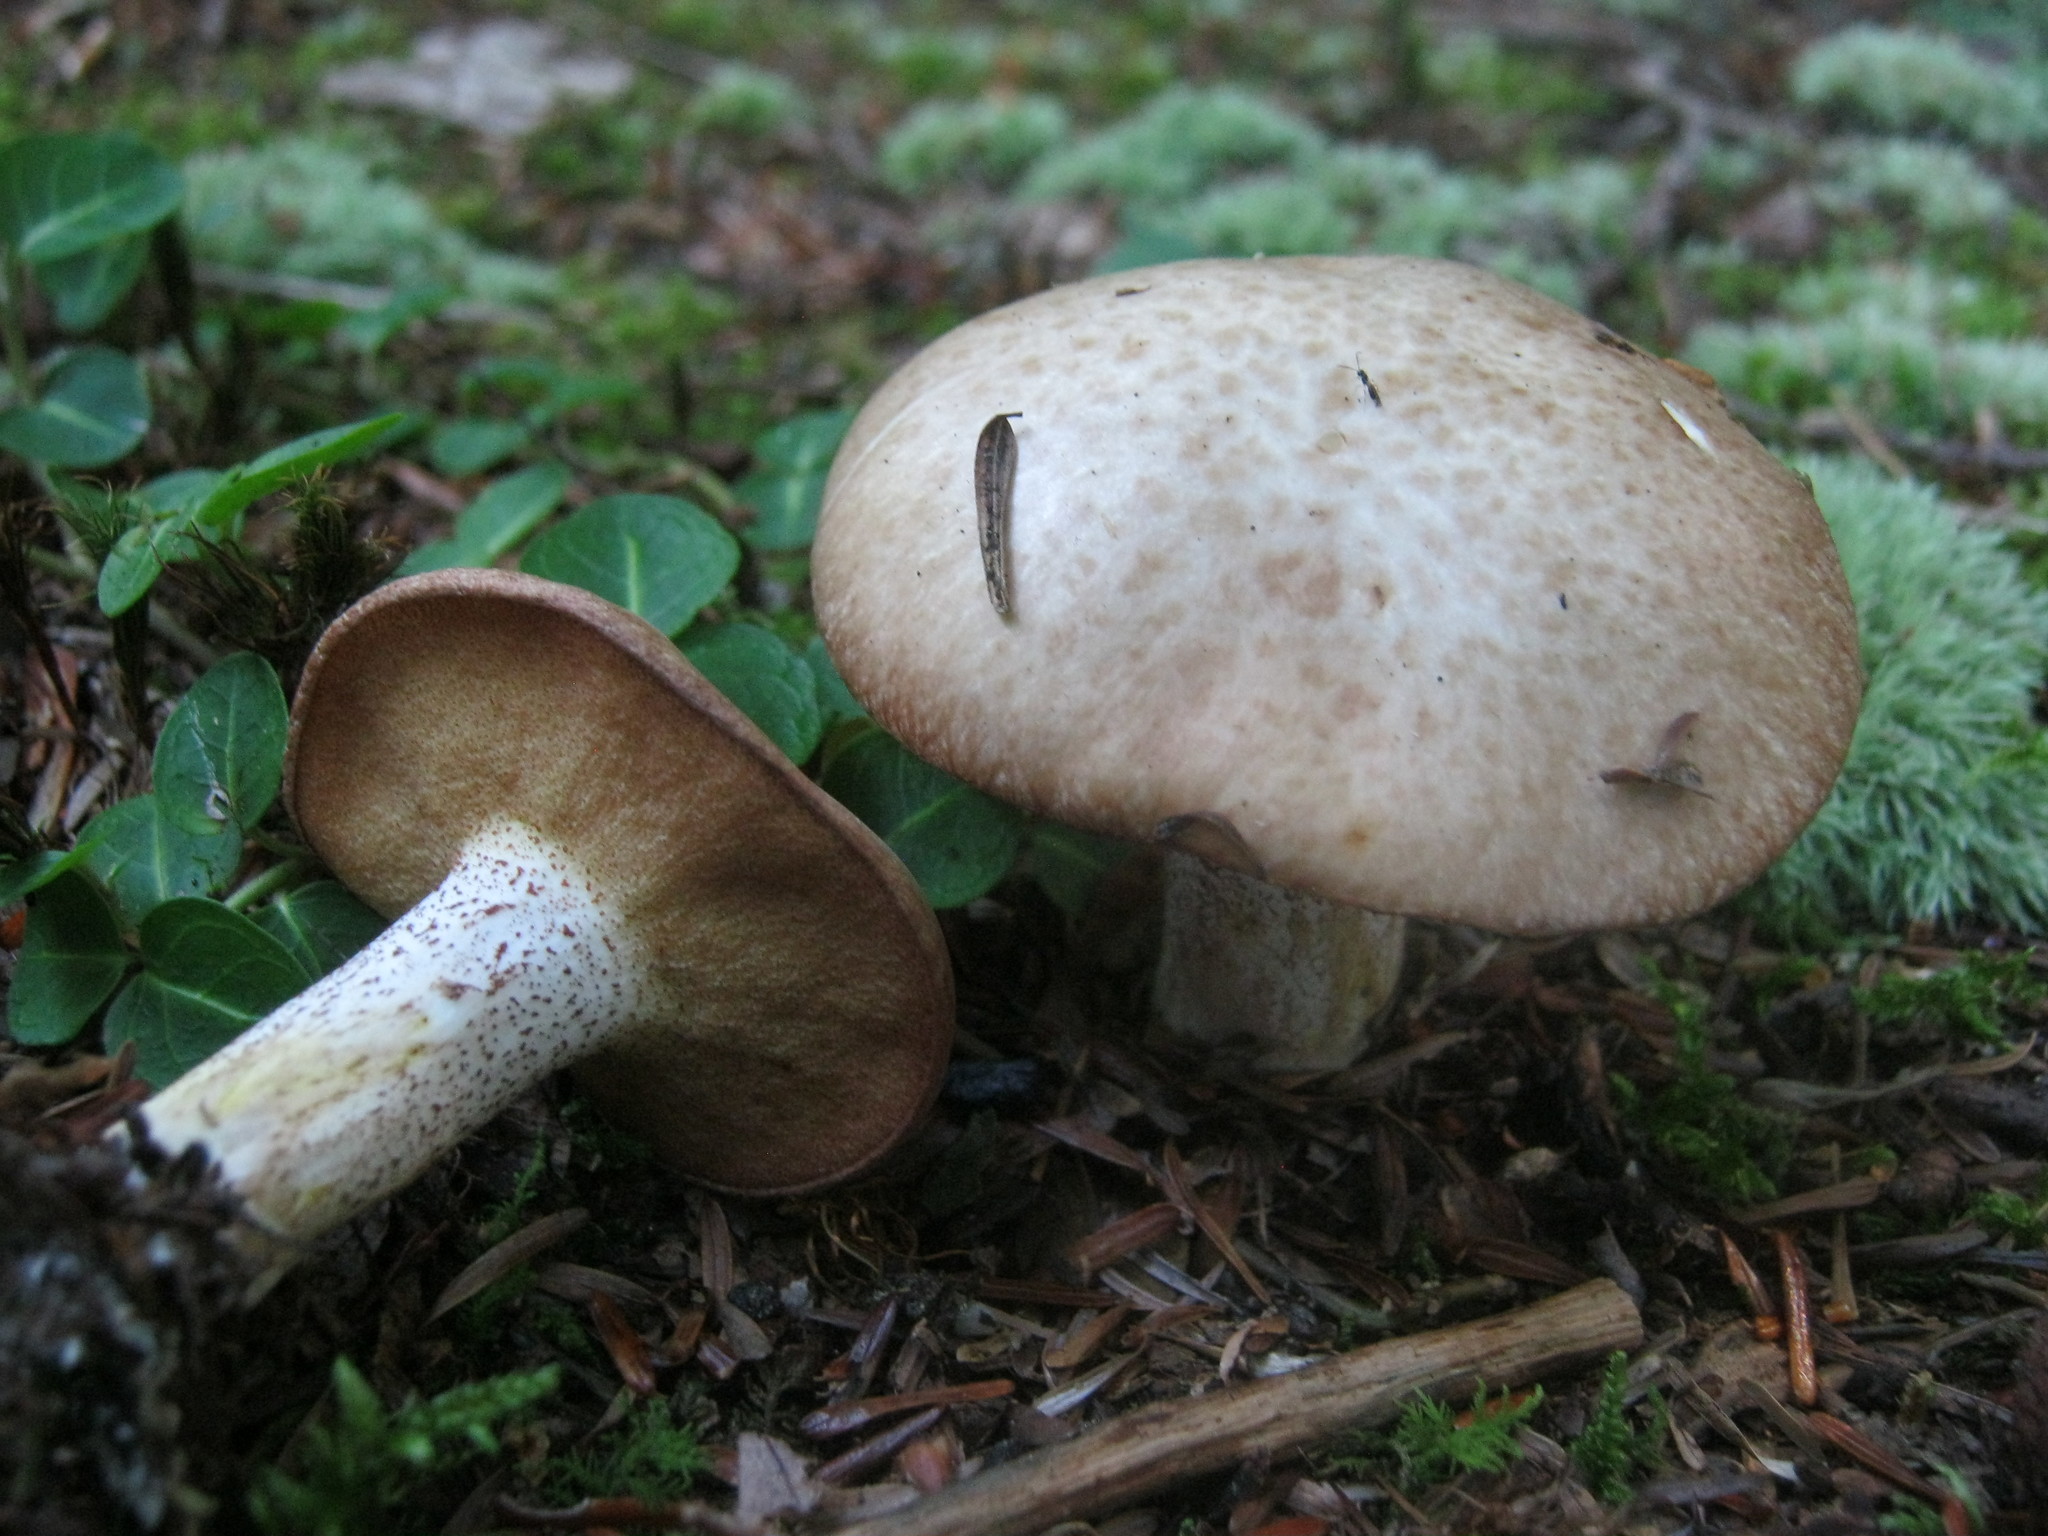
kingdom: Fungi
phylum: Basidiomycota
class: Agaricomycetes
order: Boletales
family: Suillaceae
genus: Fuscoboletinus
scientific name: Fuscoboletinus weaverae
